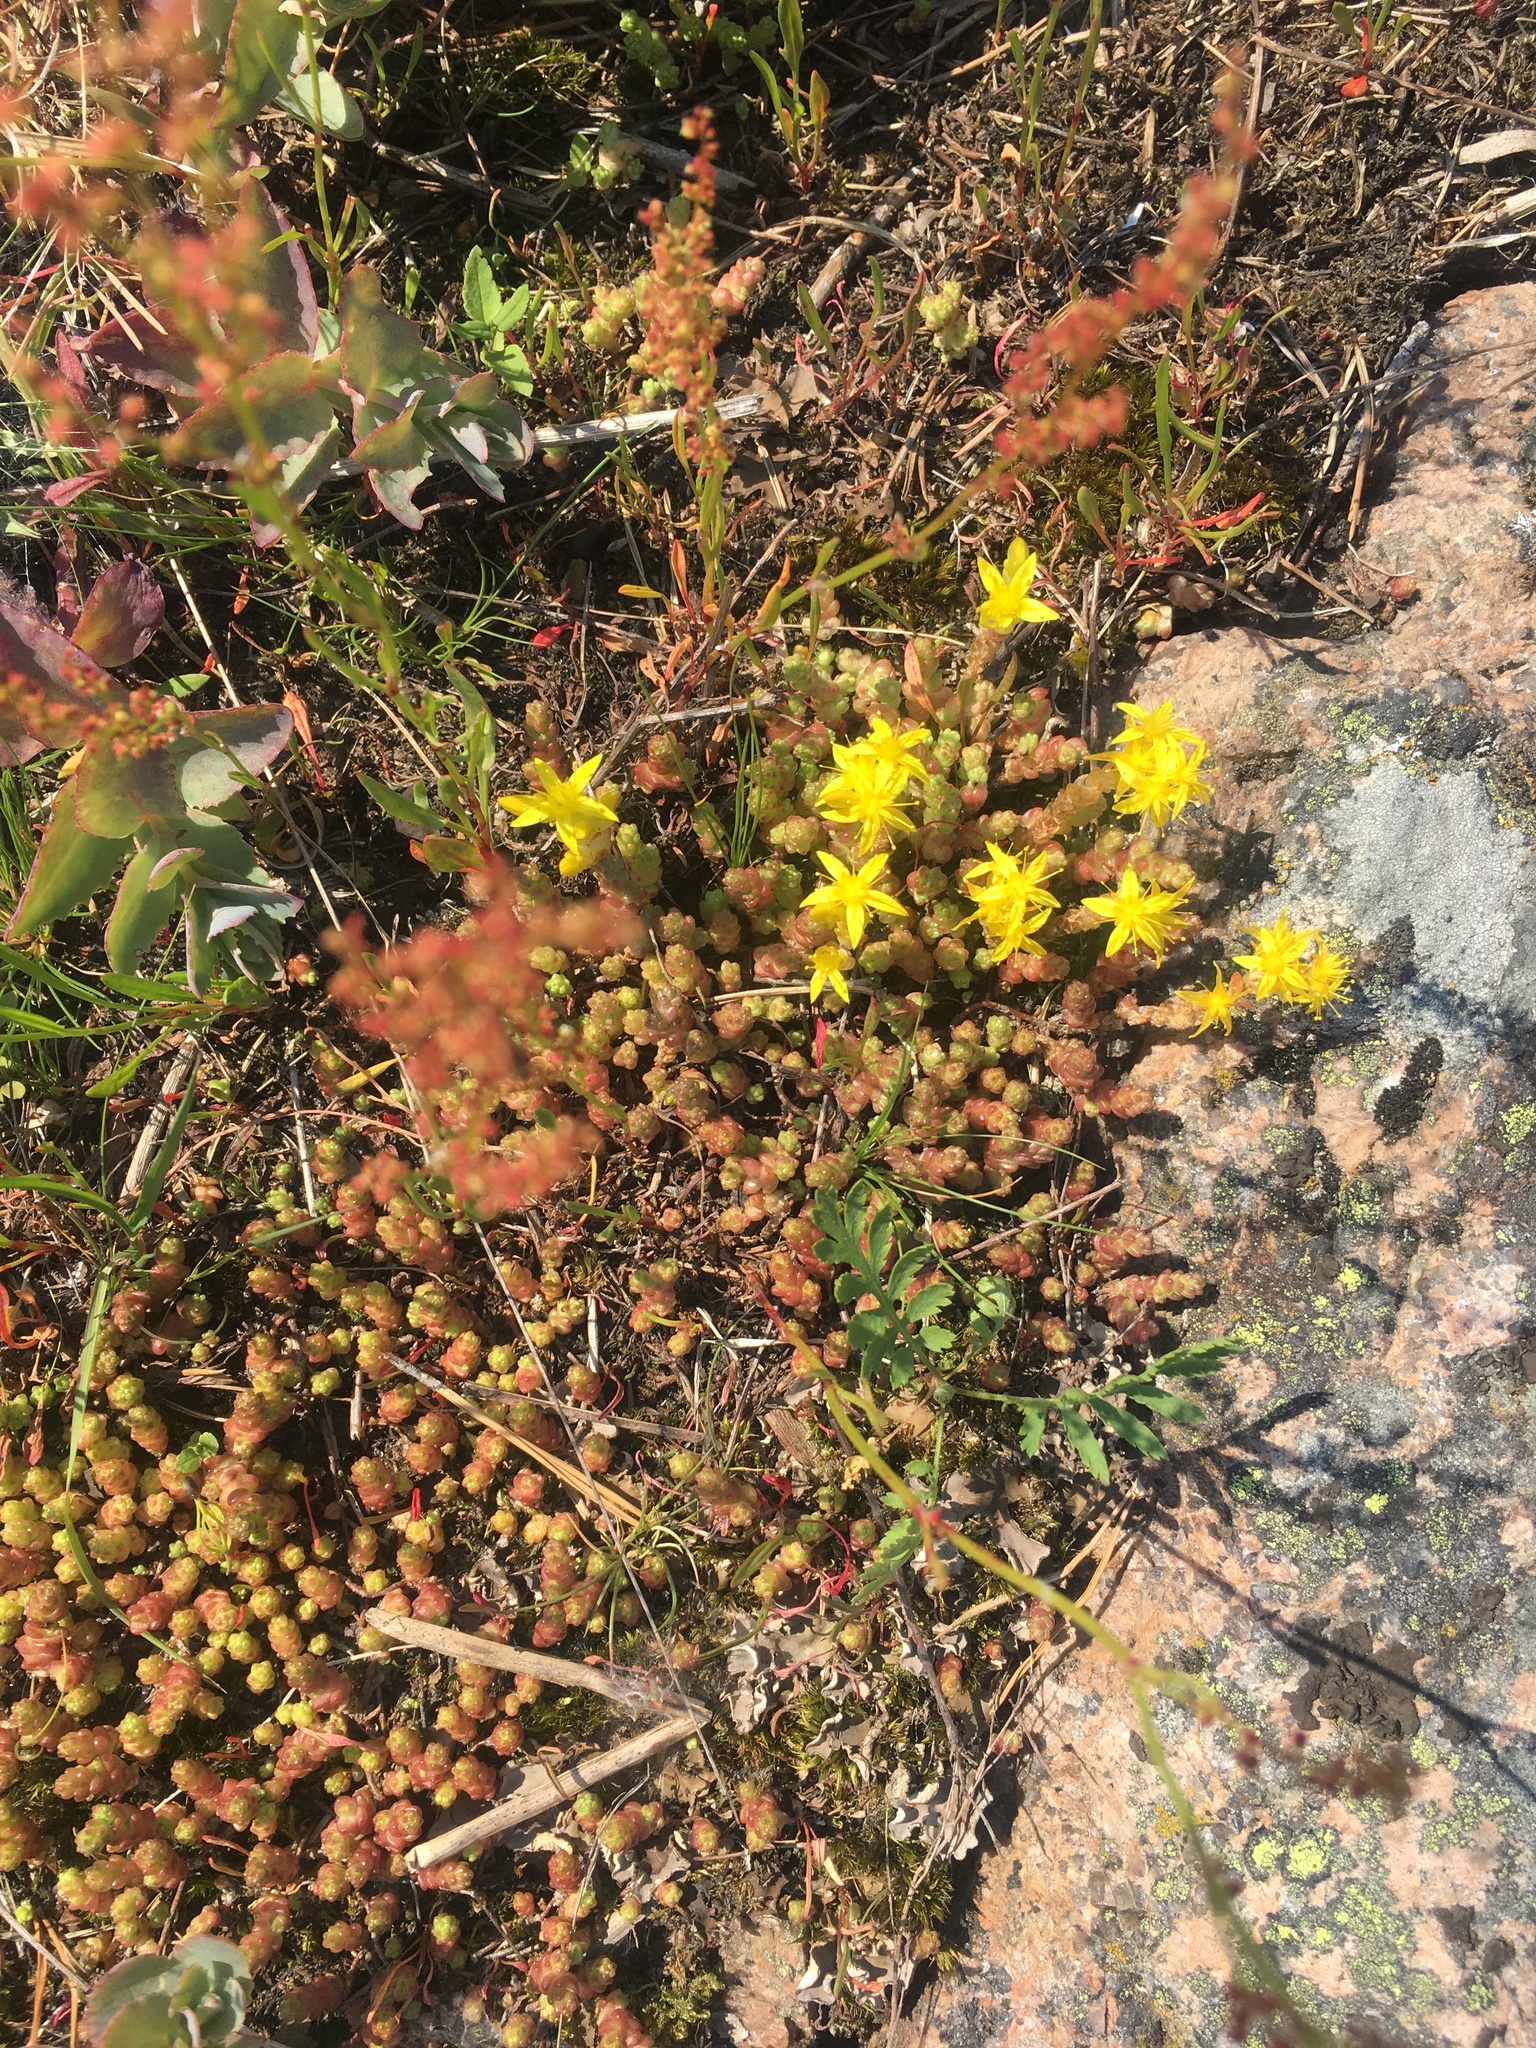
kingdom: Plantae
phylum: Tracheophyta
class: Magnoliopsida
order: Saxifragales
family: Crassulaceae
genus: Sedum
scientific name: Sedum acre
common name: Biting stonecrop
